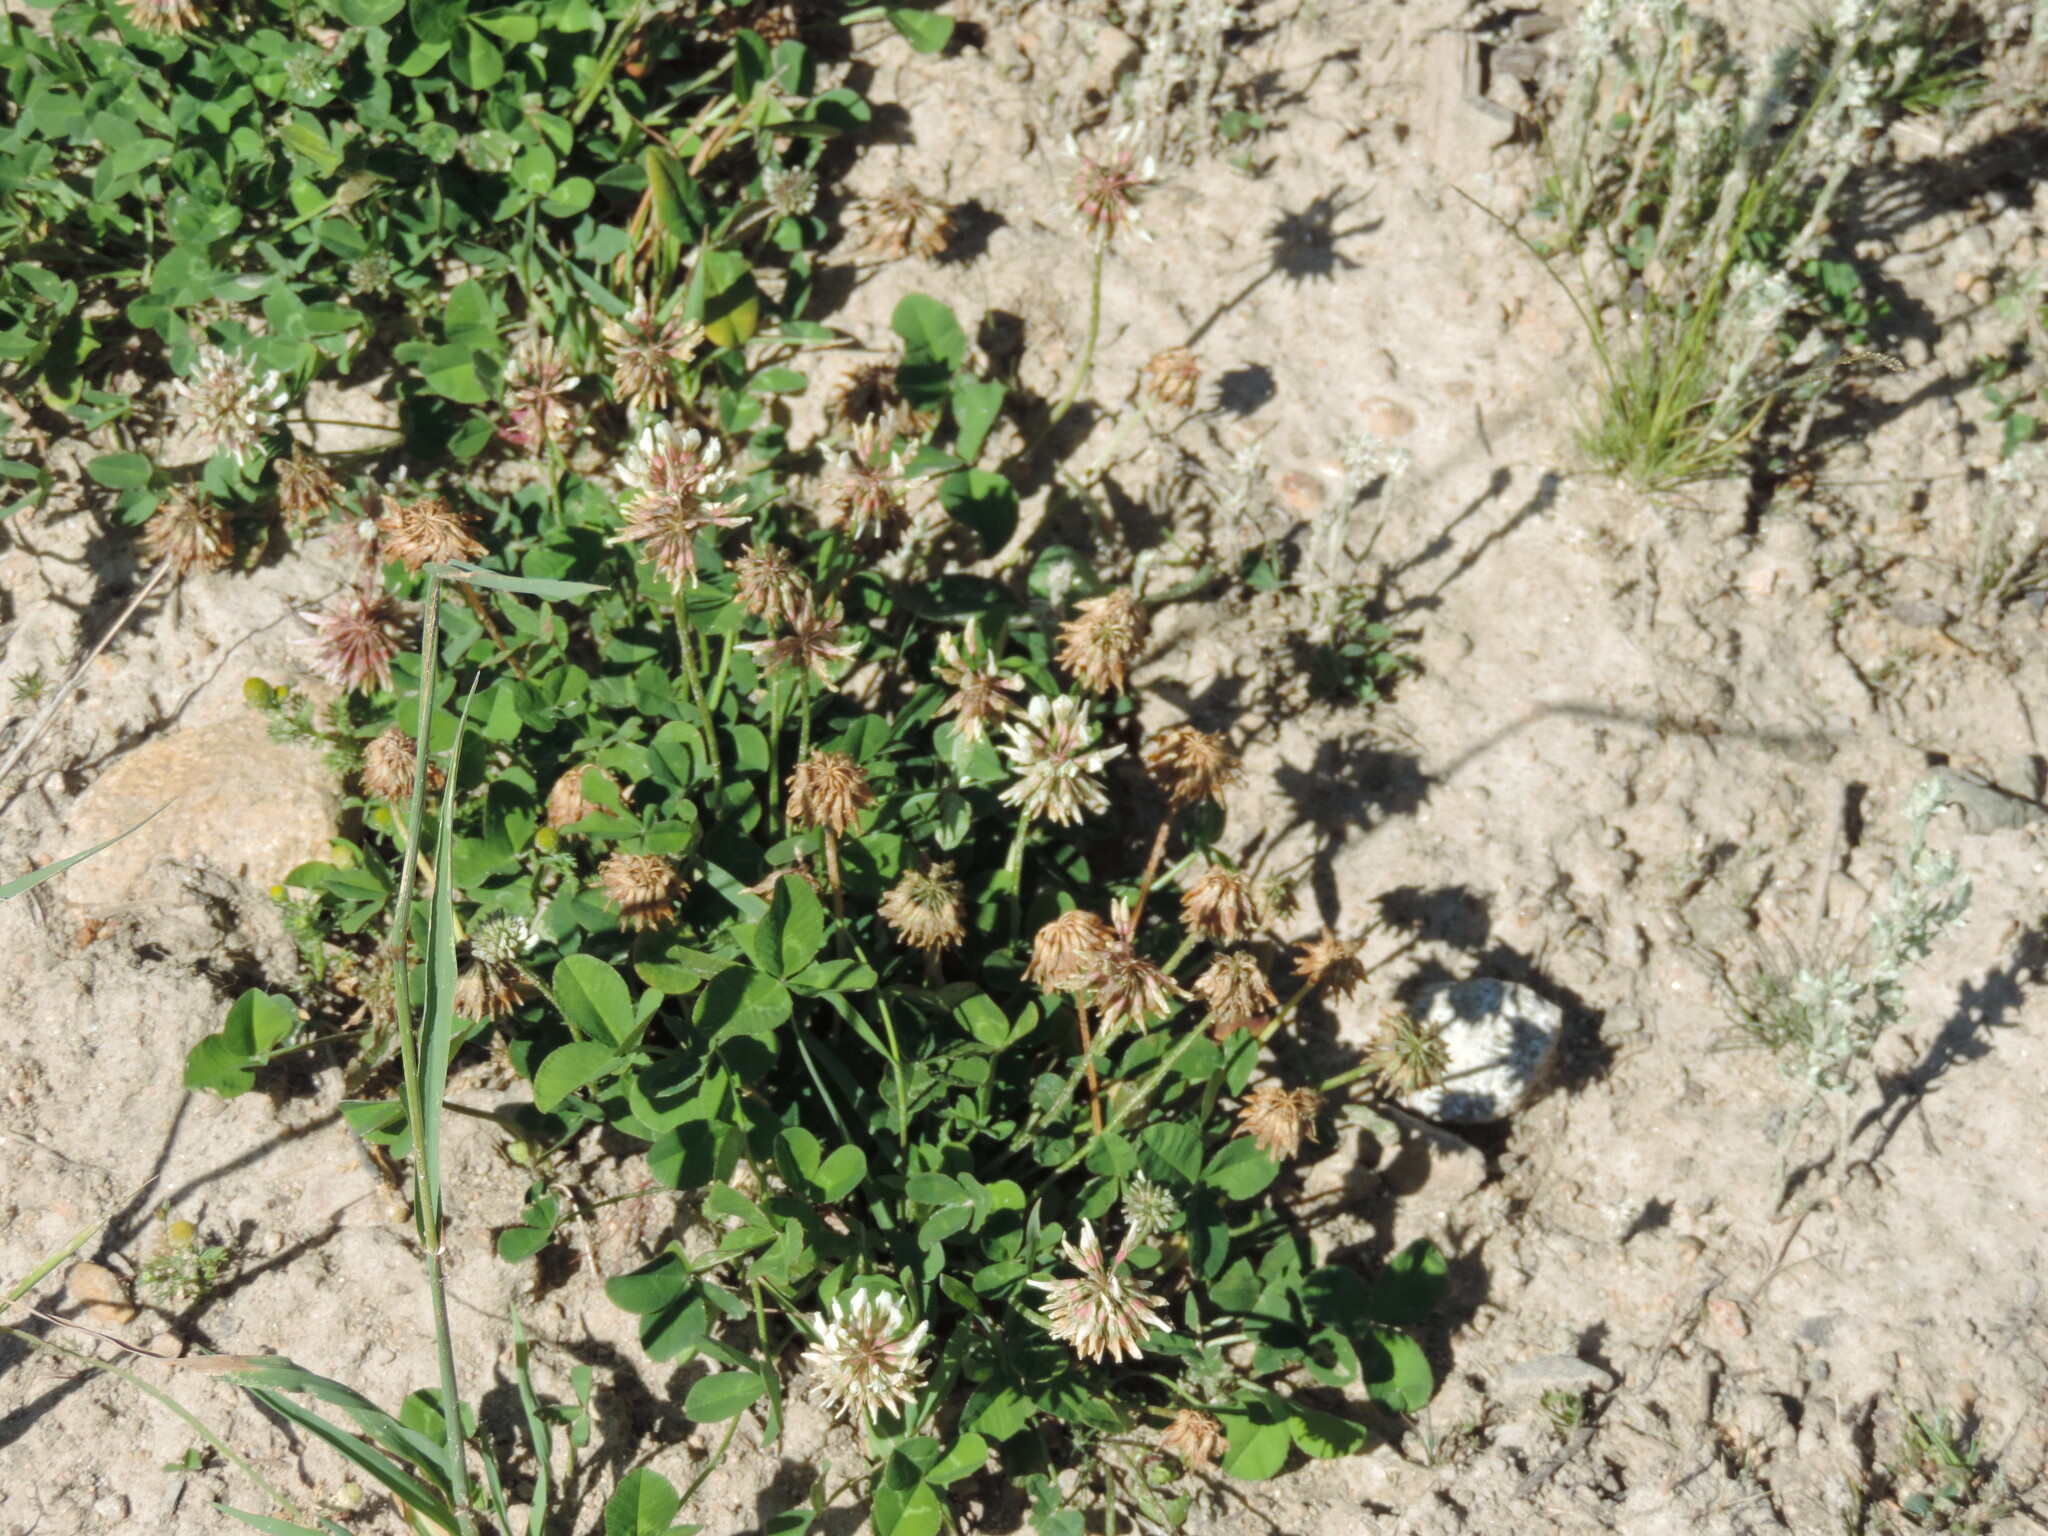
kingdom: Plantae
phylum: Tracheophyta
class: Magnoliopsida
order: Fabales
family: Fabaceae
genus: Trifolium
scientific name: Trifolium repens
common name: White clover
